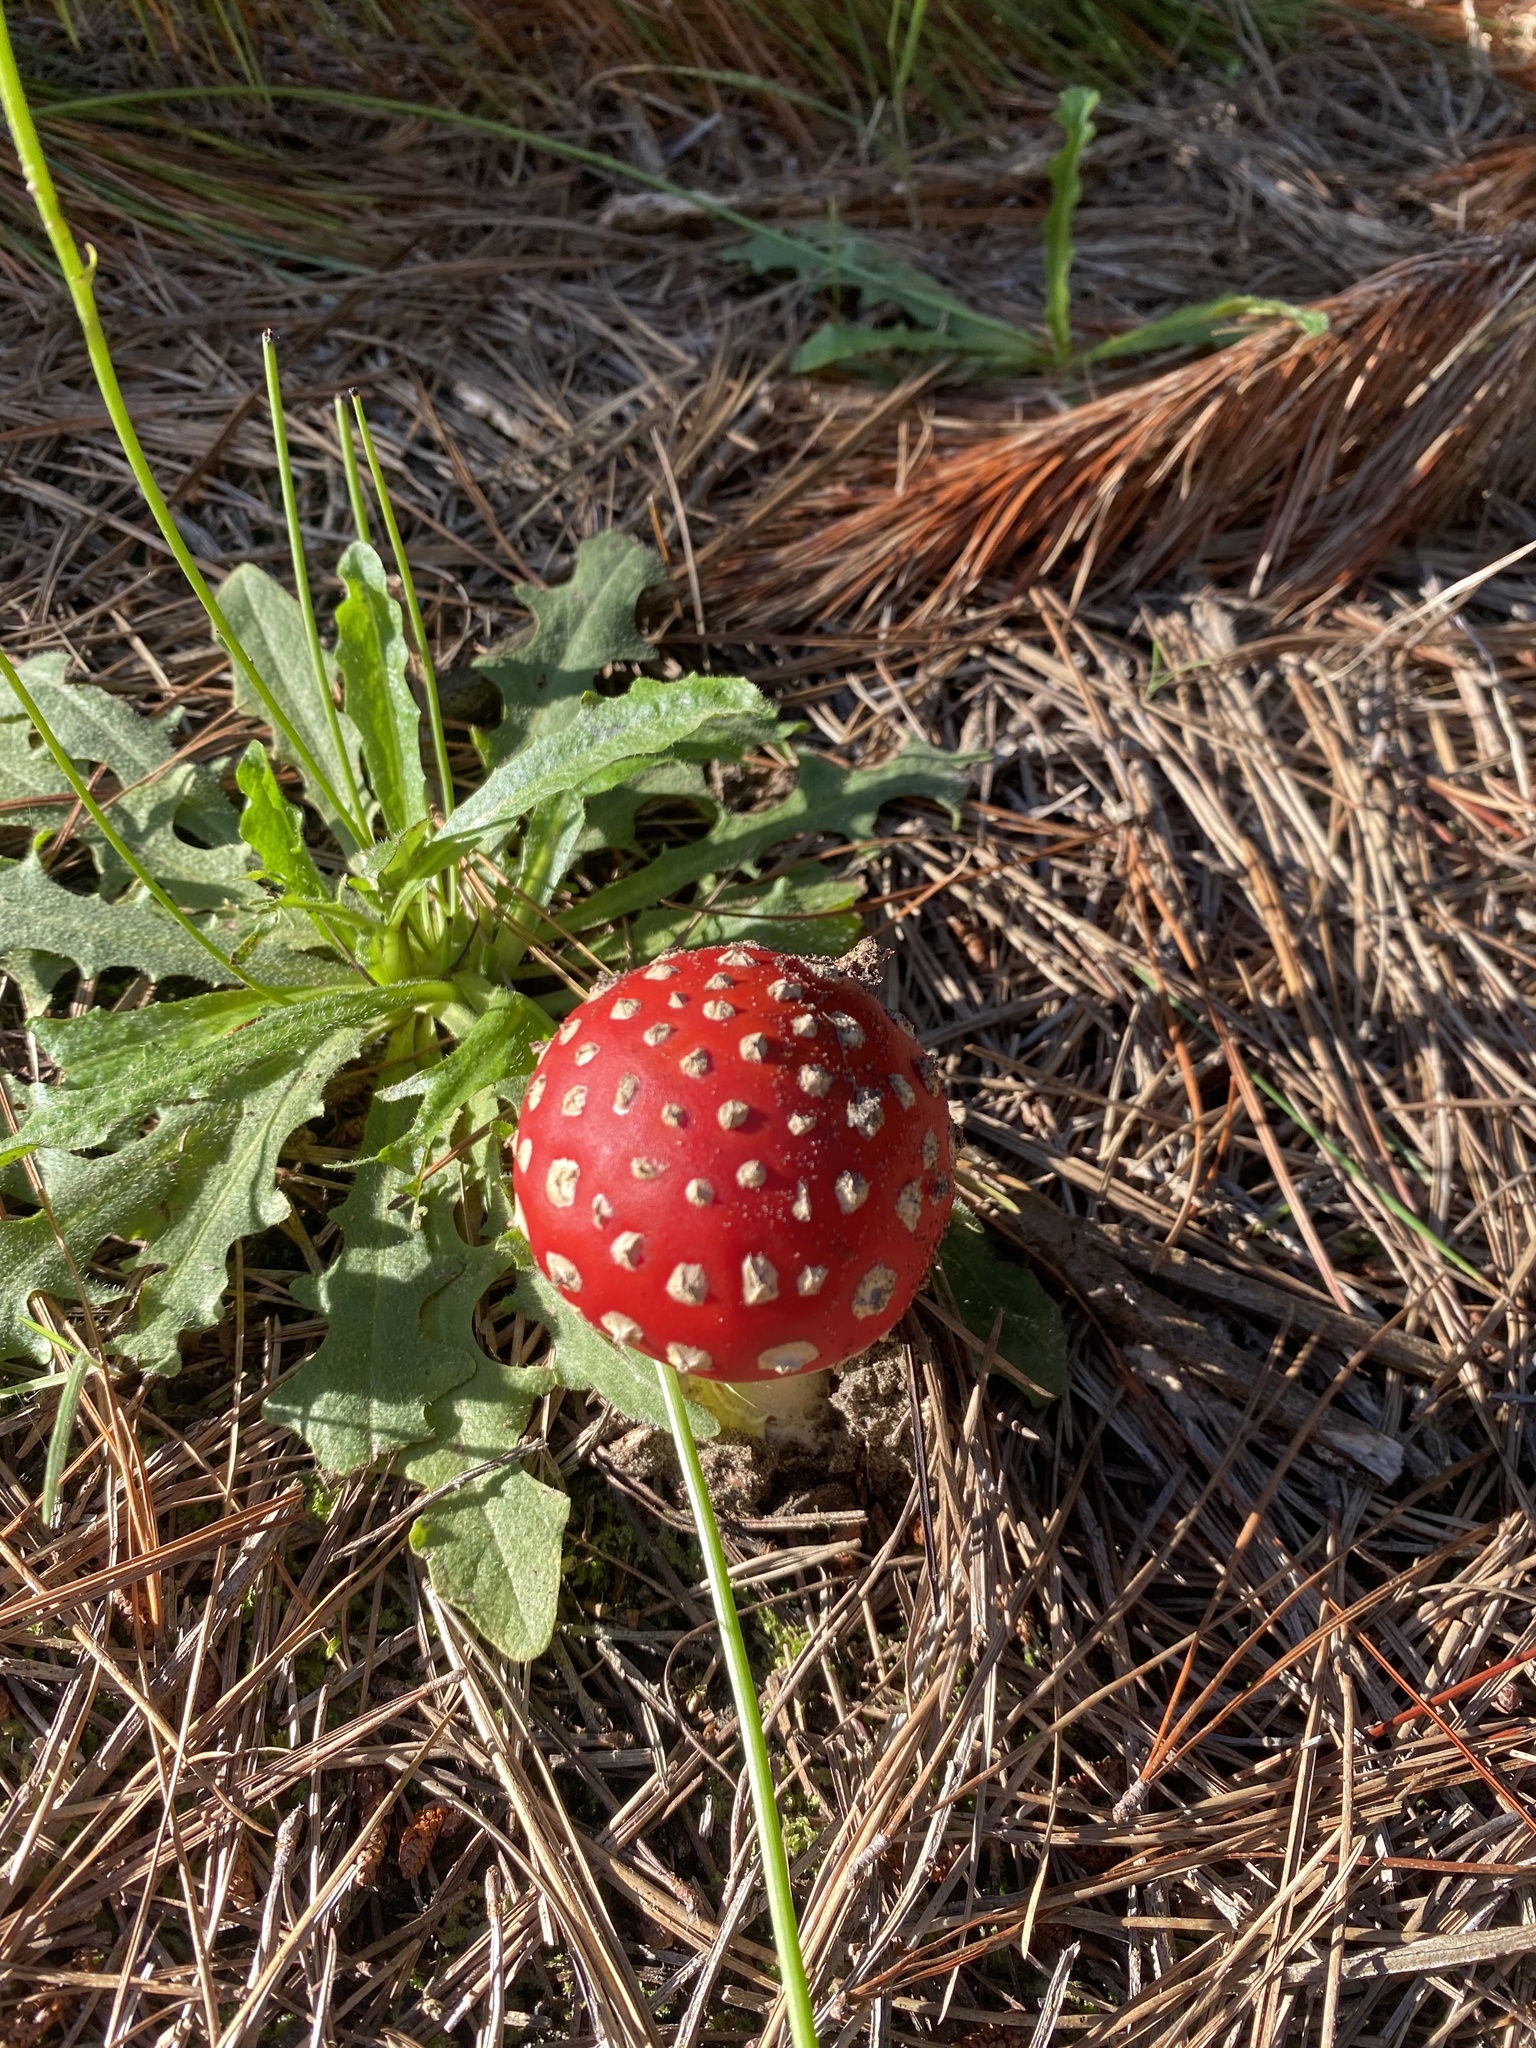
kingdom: Fungi
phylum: Basidiomycota
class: Agaricomycetes
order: Agaricales
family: Amanitaceae
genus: Amanita
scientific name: Amanita muscaria
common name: Fly agaric
